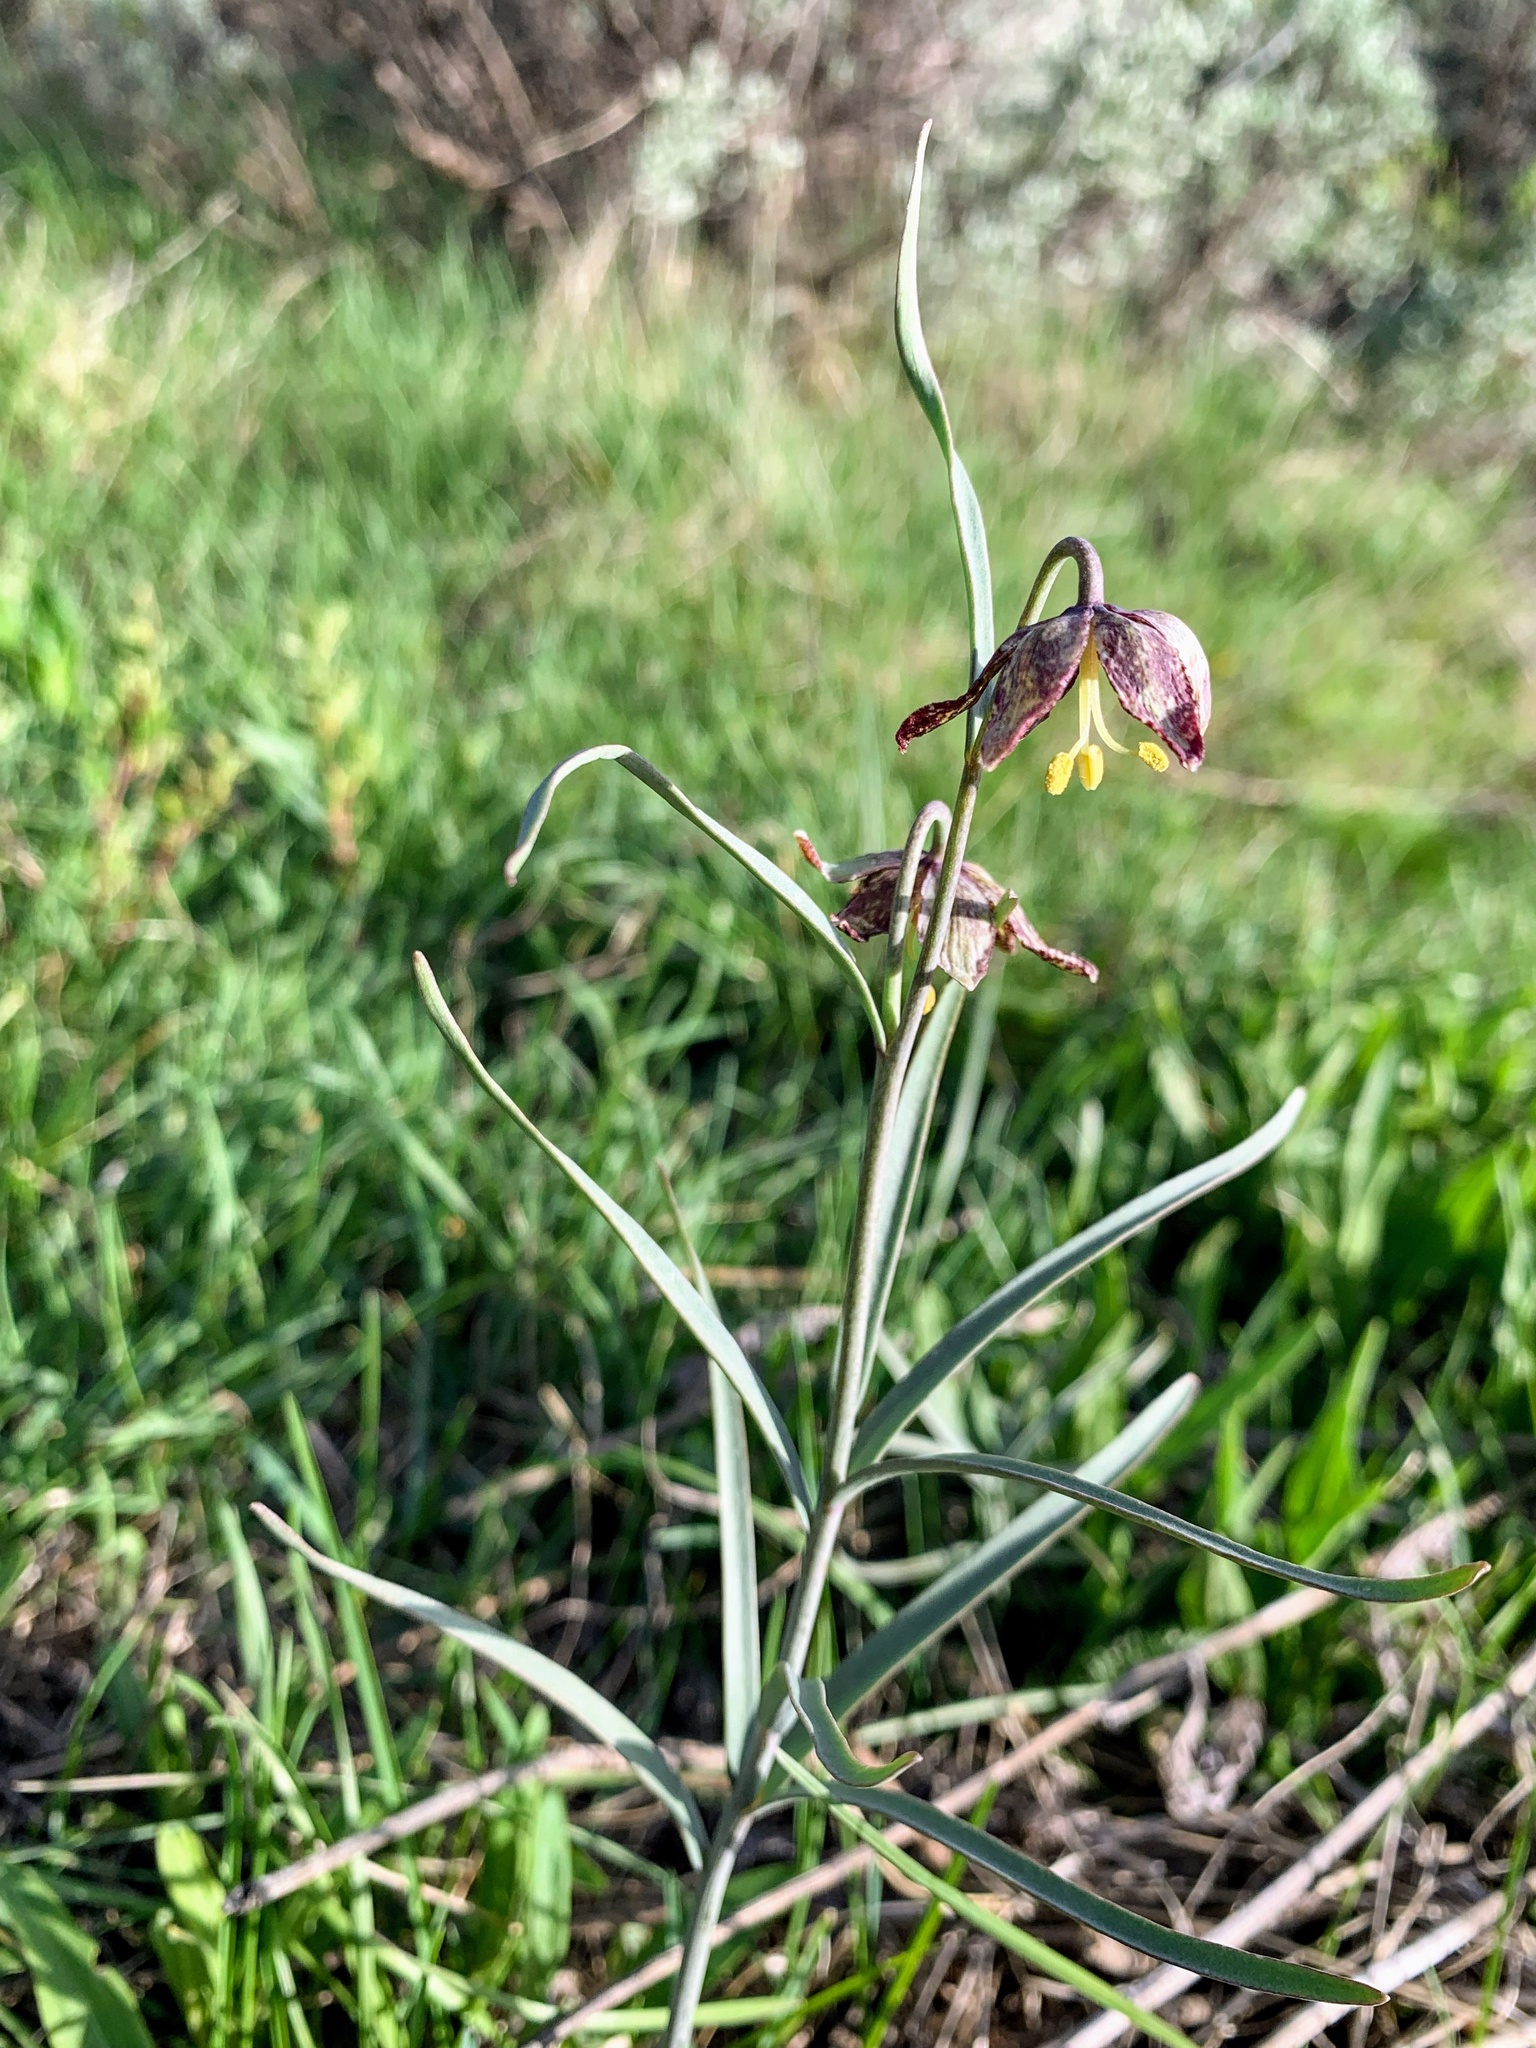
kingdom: Plantae
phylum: Tracheophyta
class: Liliopsida
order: Liliales
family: Liliaceae
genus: Fritillaria
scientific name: Fritillaria atropurpurea
